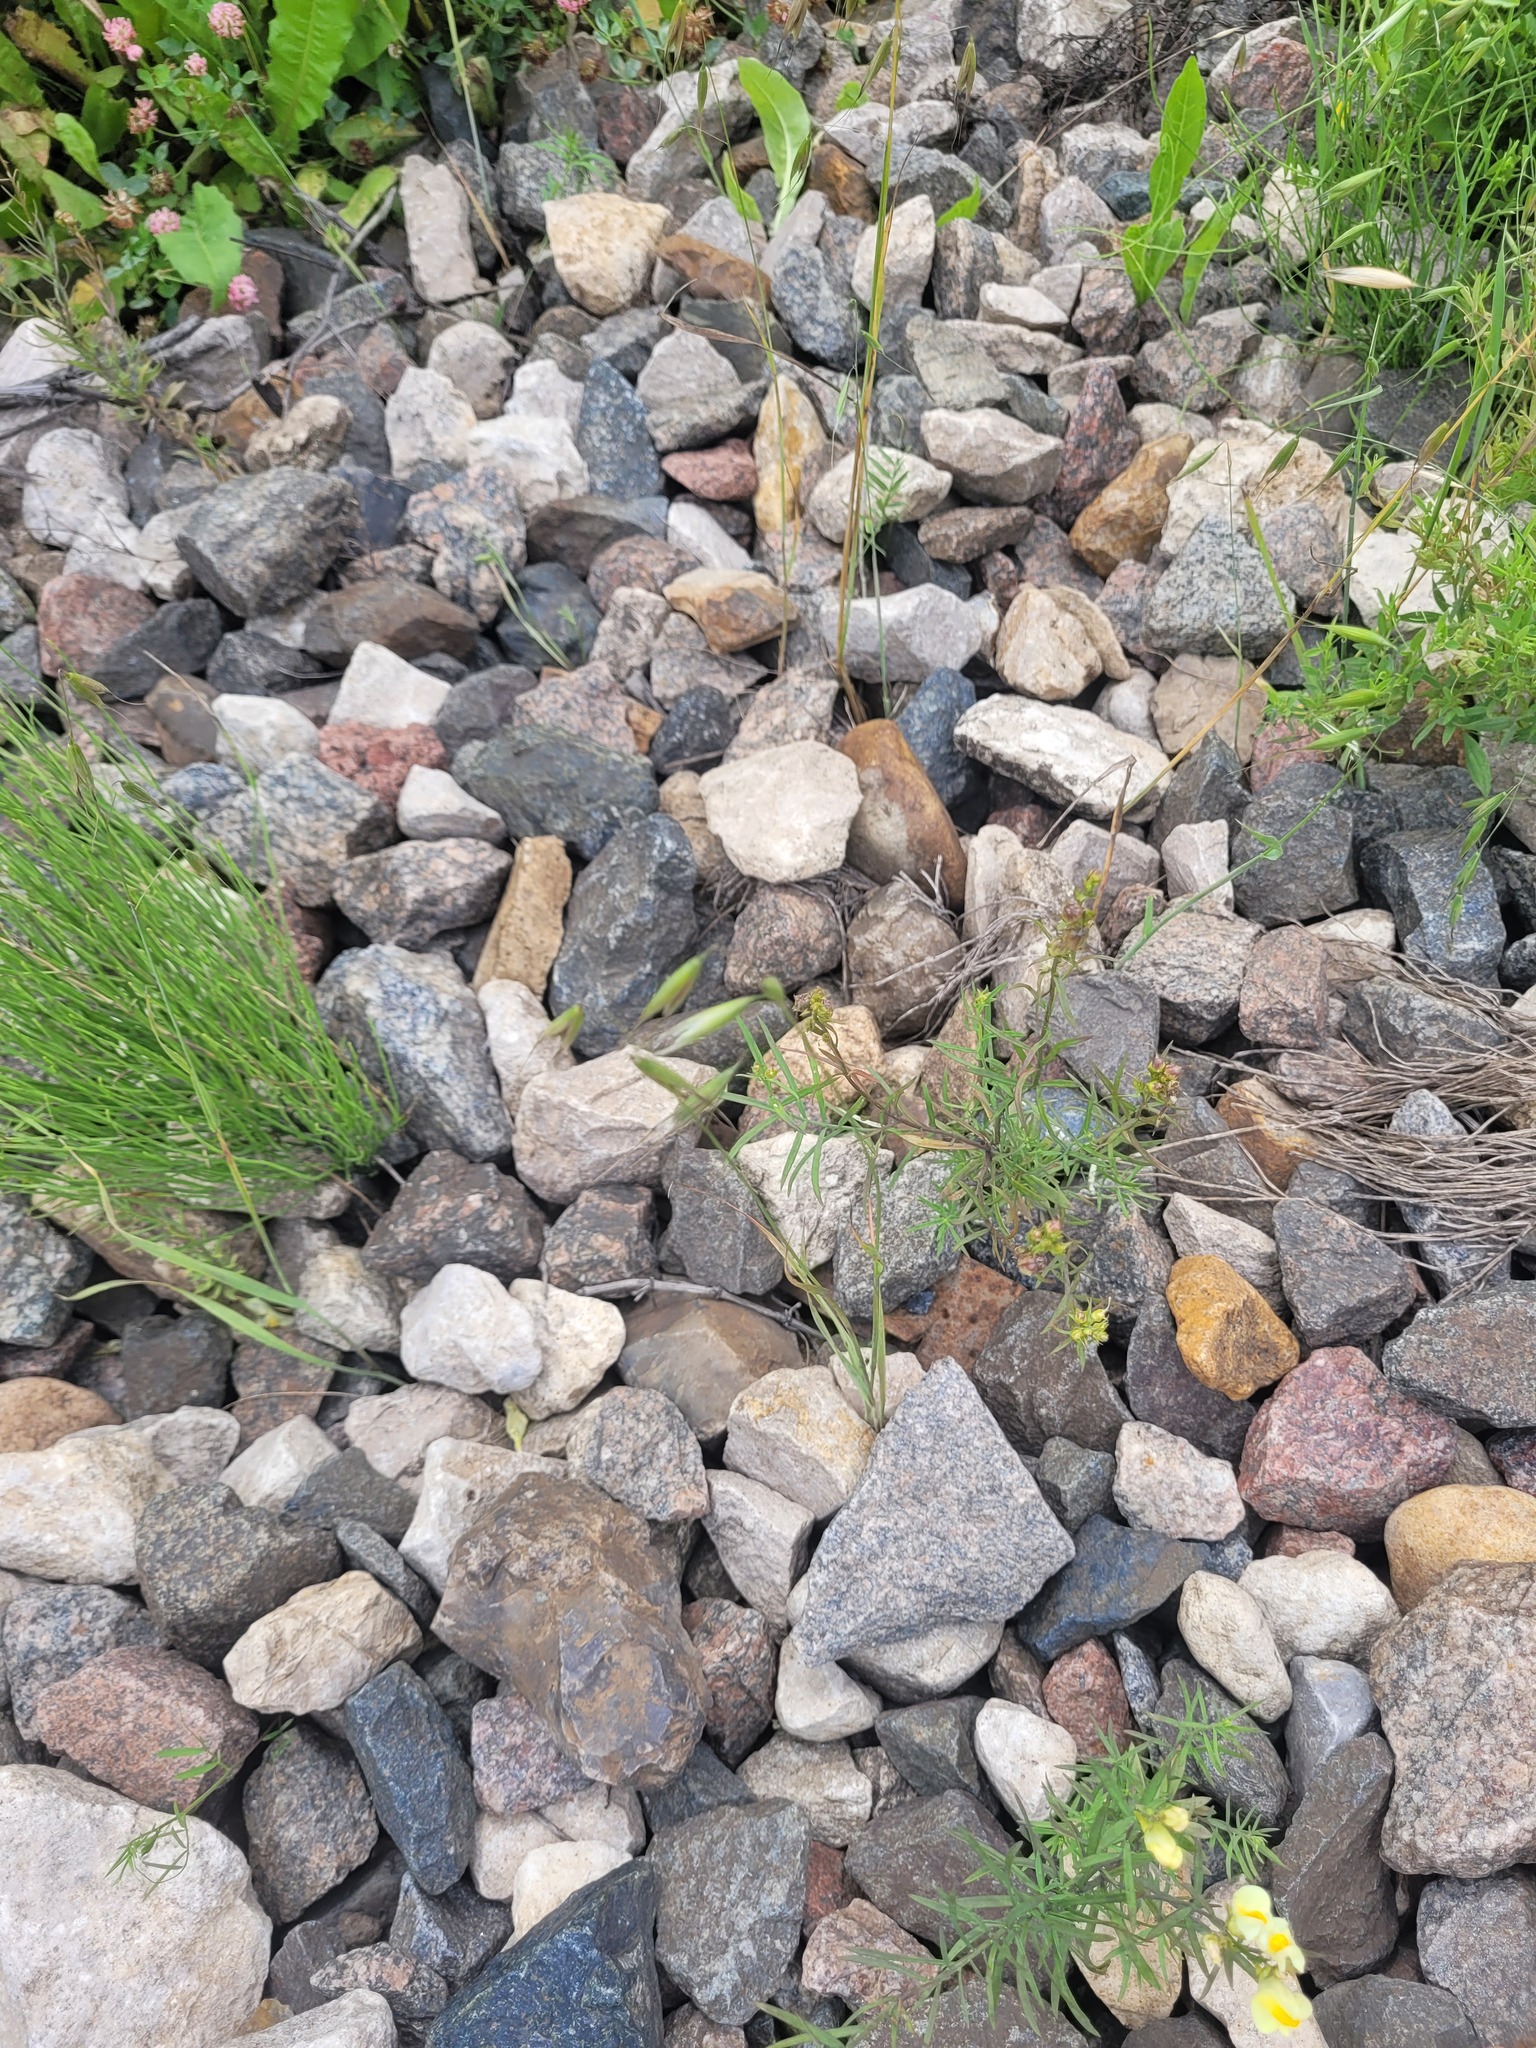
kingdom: Plantae
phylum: Tracheophyta
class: Liliopsida
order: Poales
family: Poaceae
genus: Avena
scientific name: Avena fatua
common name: Wild oat
